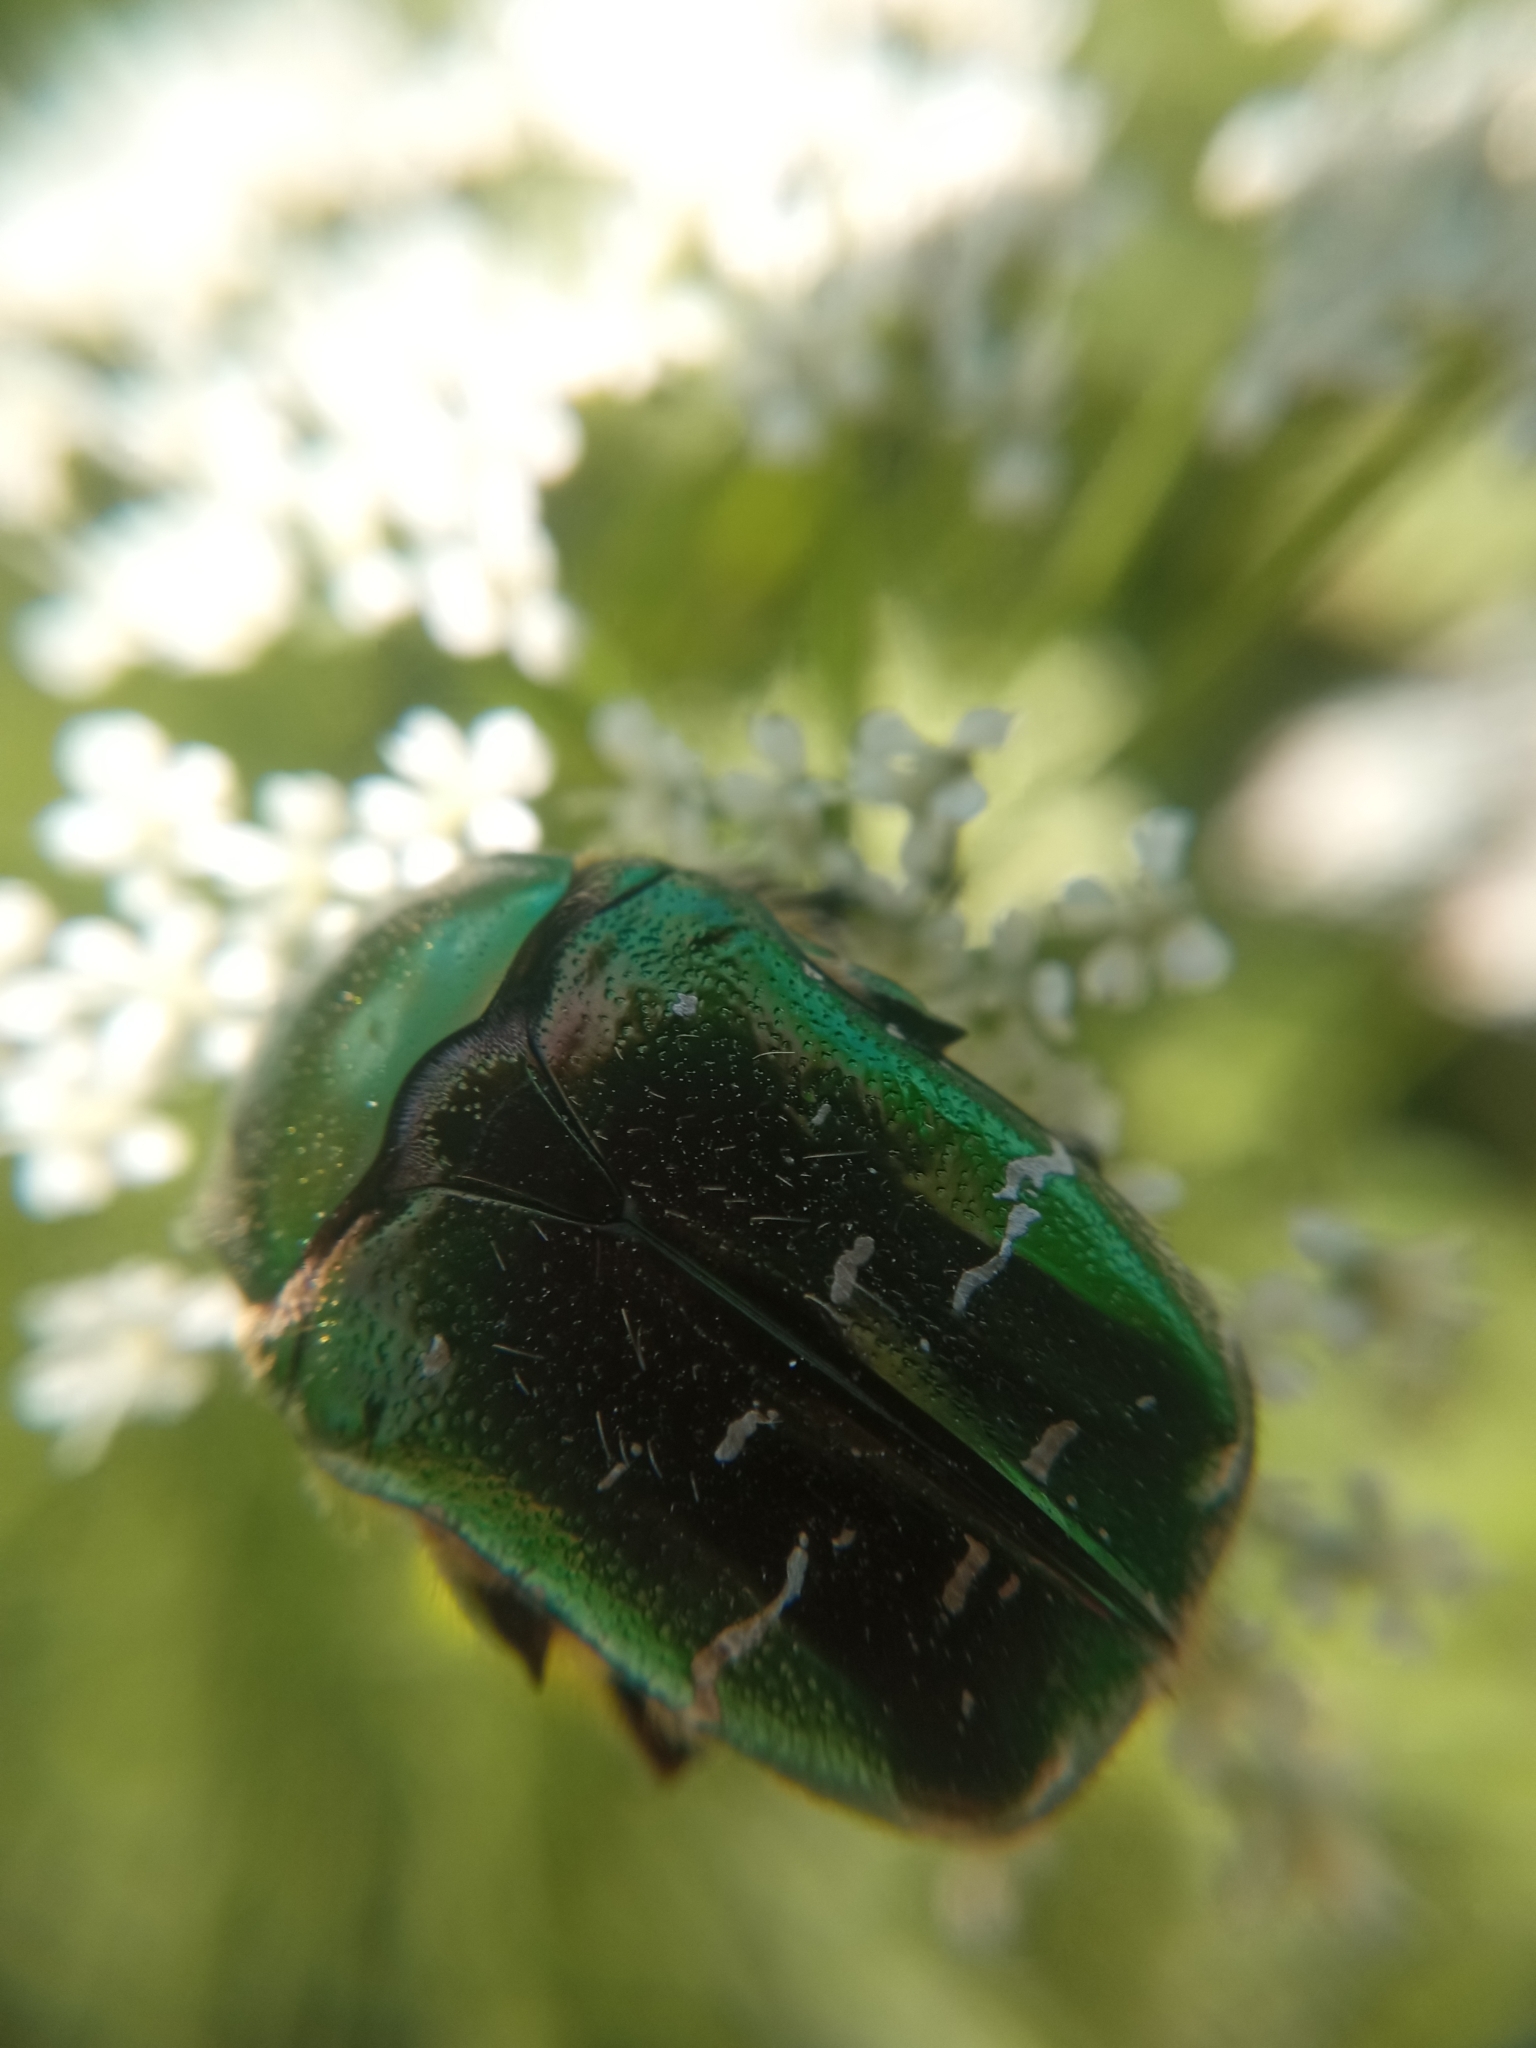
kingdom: Animalia
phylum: Arthropoda
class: Insecta
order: Coleoptera
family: Scarabaeidae
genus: Cetonia
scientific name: Cetonia aurata
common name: Rose chafer
